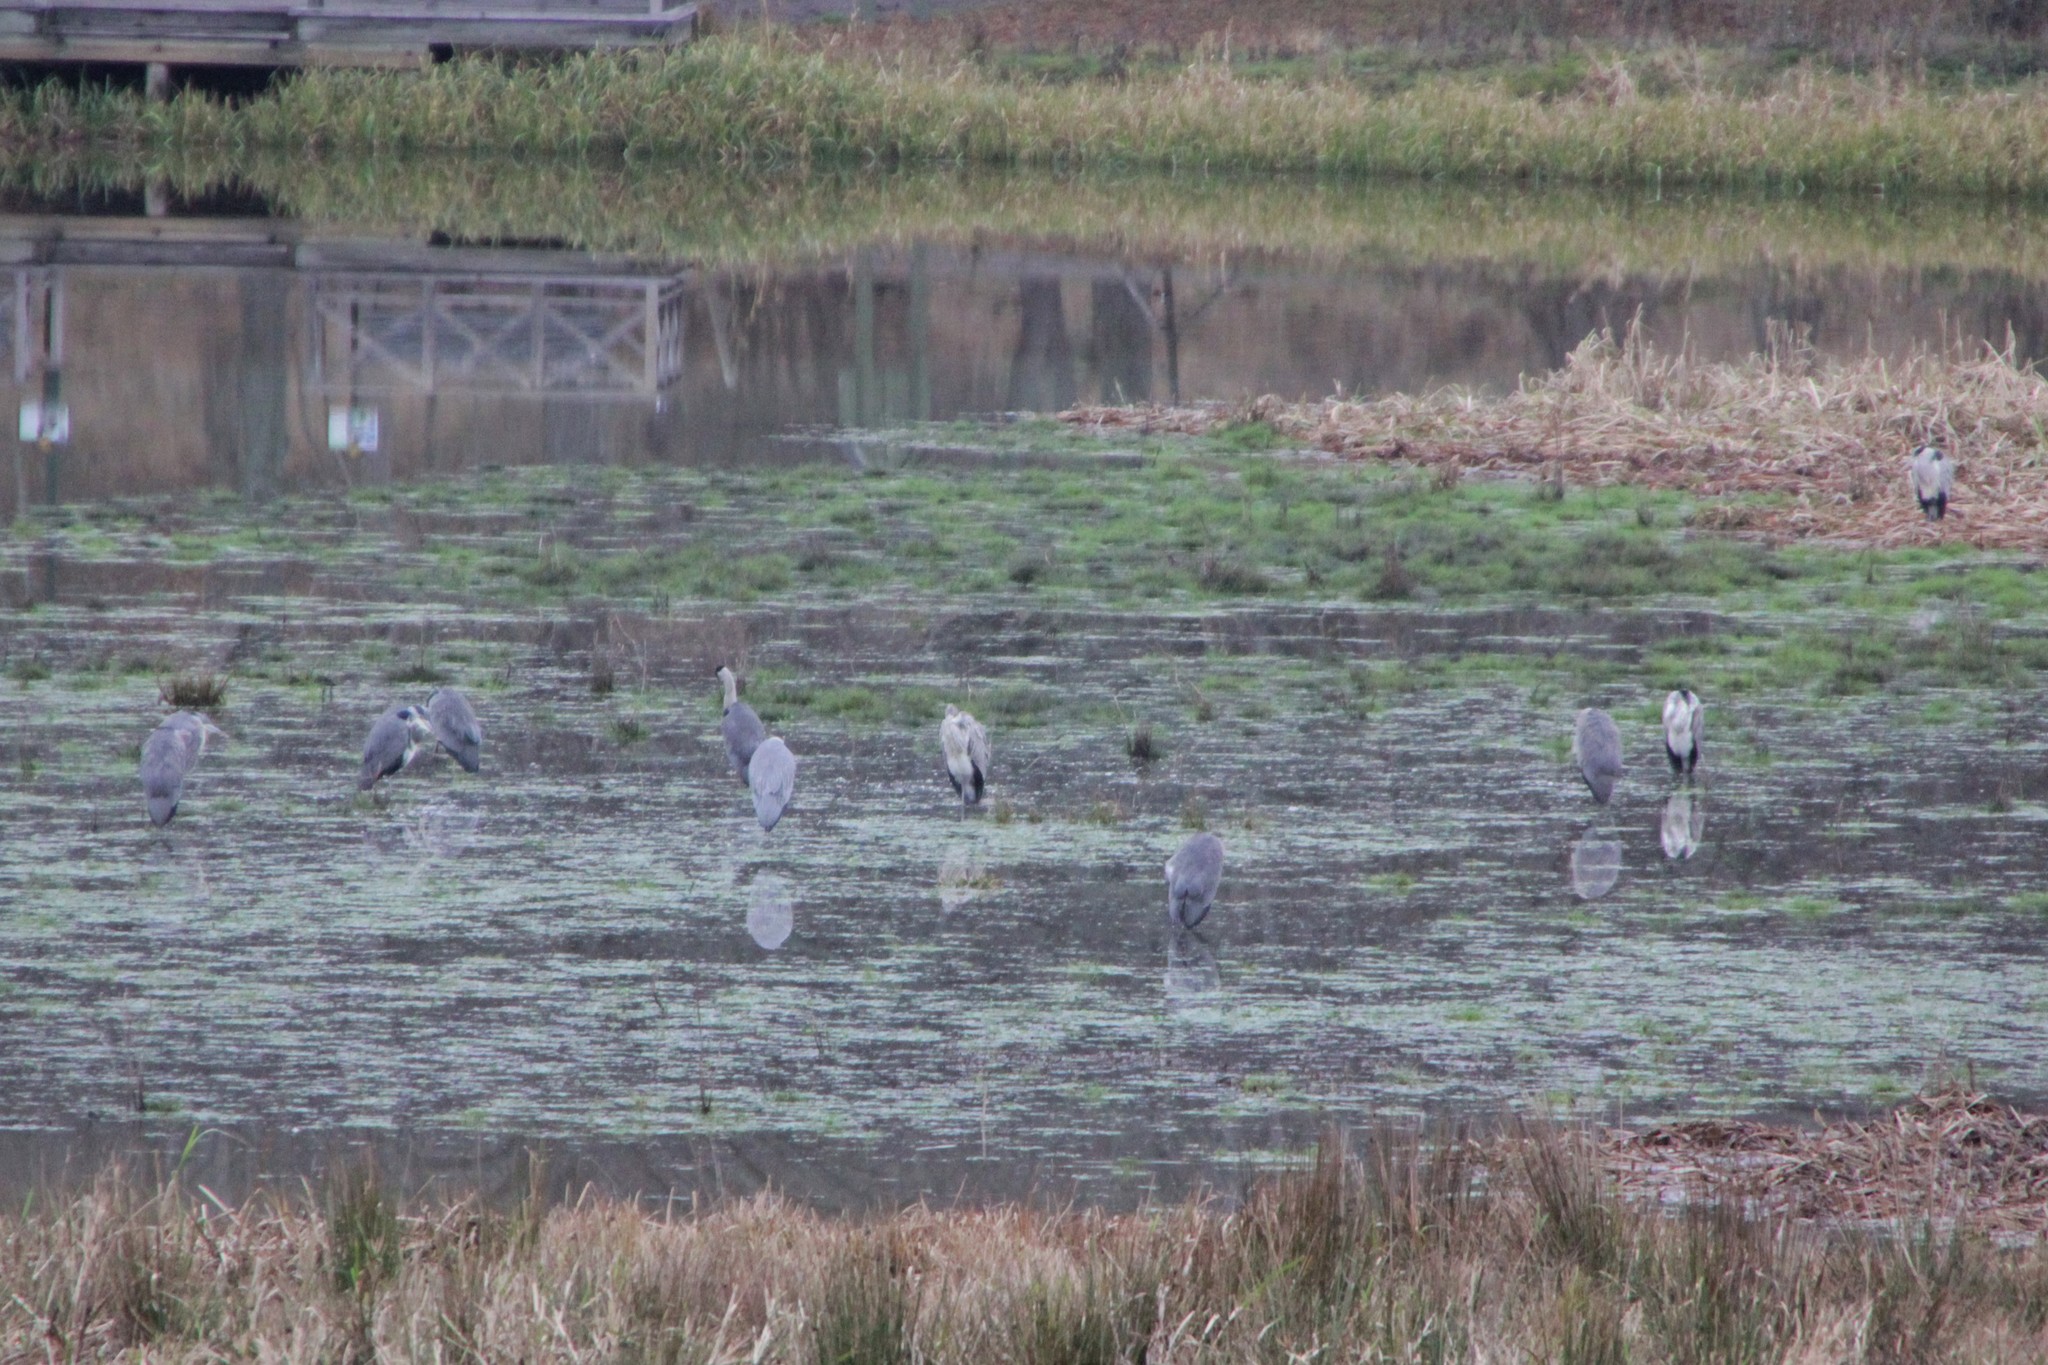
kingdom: Animalia
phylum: Chordata
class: Aves
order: Pelecaniformes
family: Ardeidae
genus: Ardea
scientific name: Ardea cinerea
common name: Grey heron
